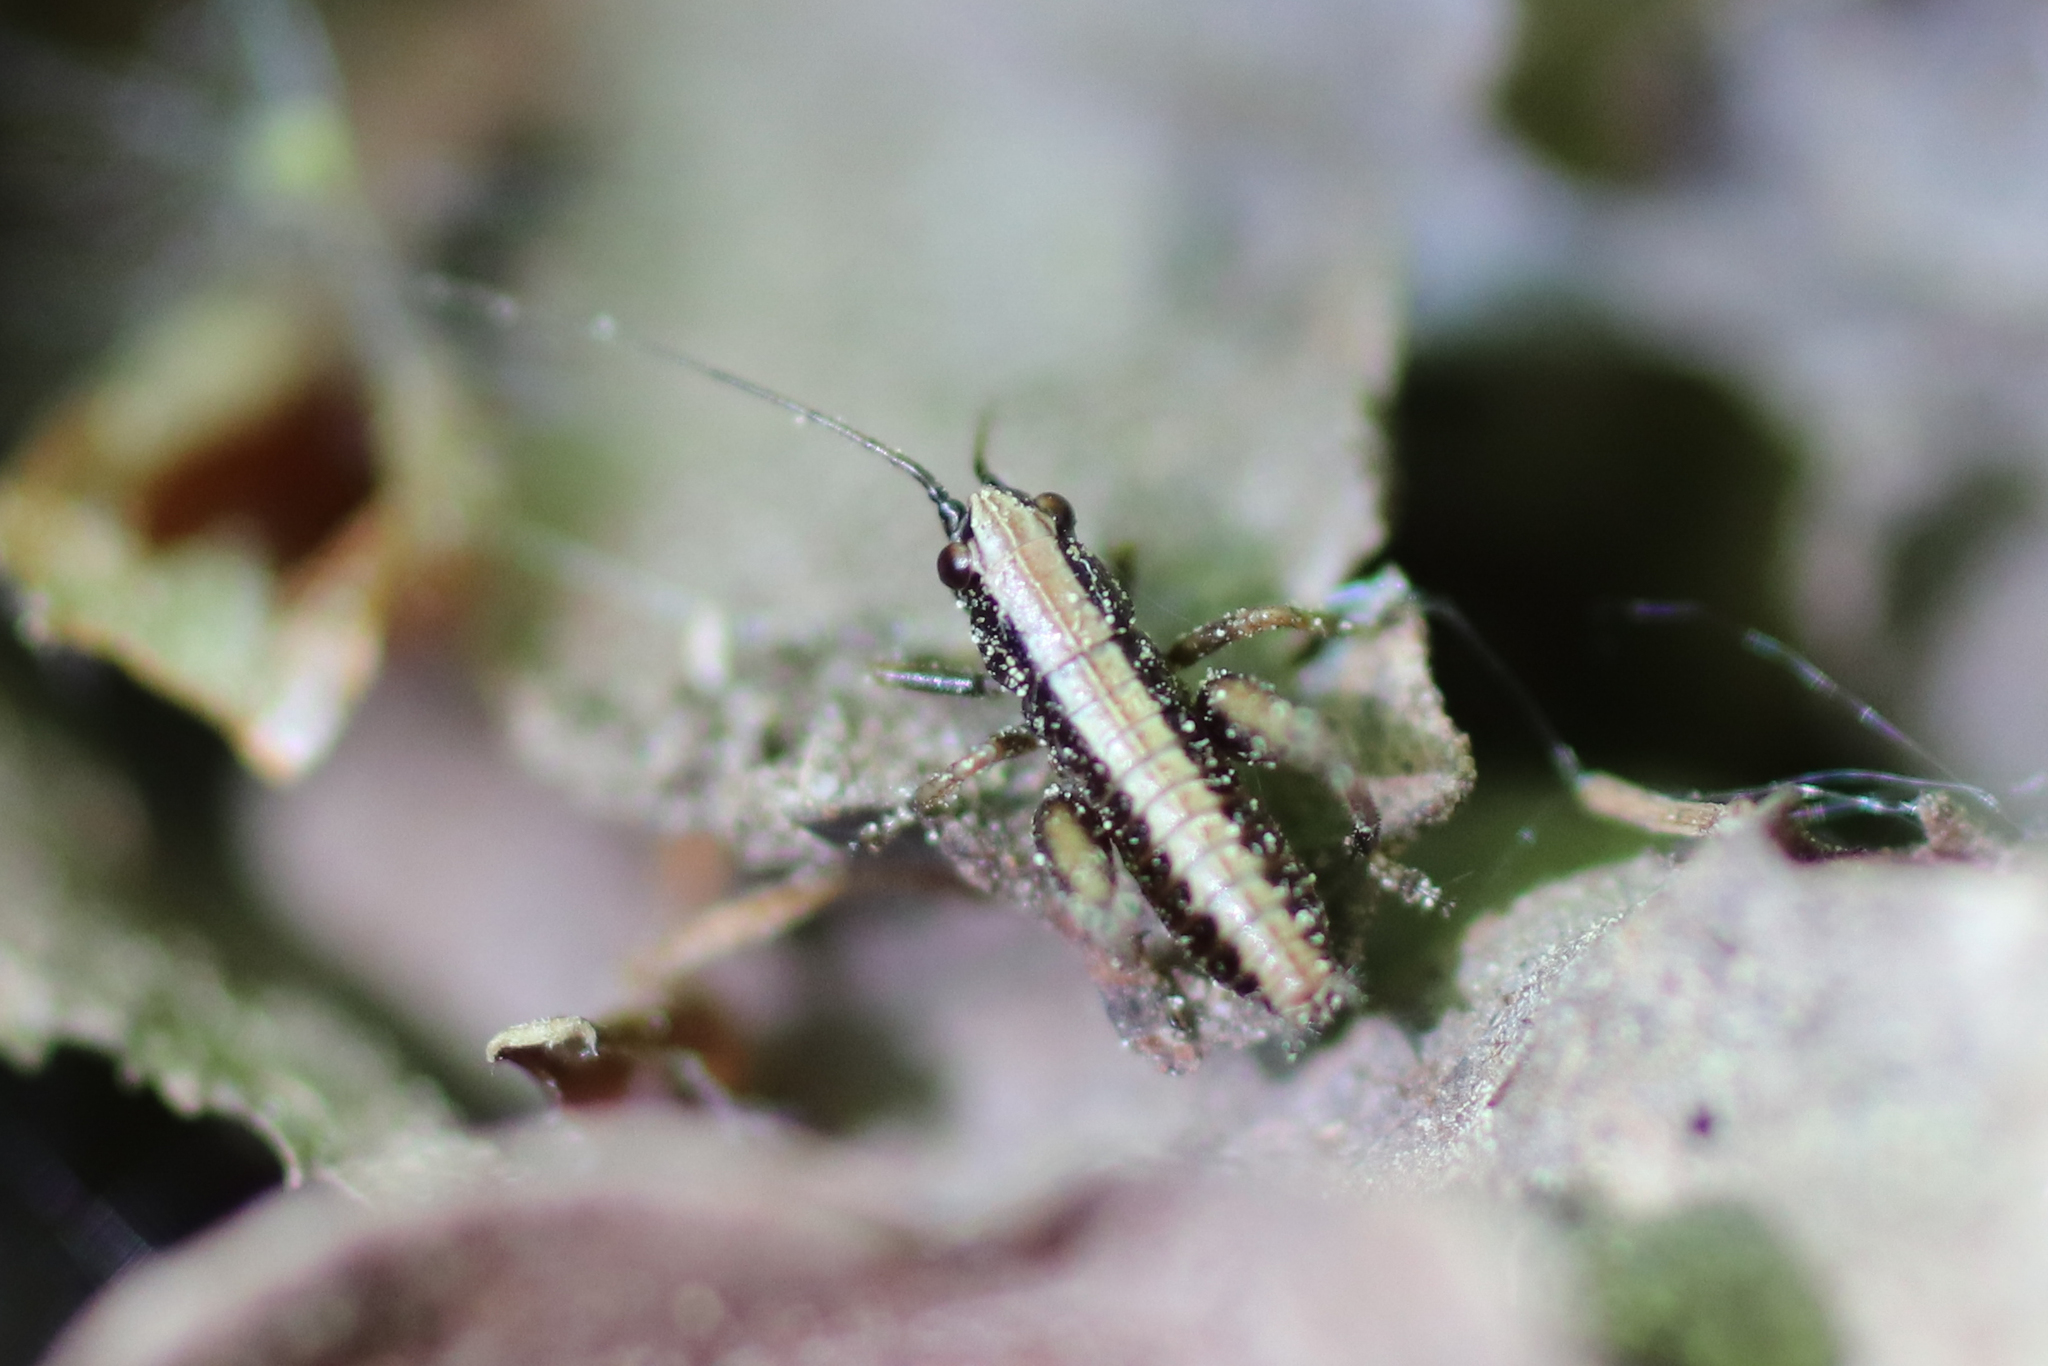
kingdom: Animalia
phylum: Arthropoda
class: Insecta
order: Orthoptera
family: Tettigoniidae
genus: Pholidoptera
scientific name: Pholidoptera griseoaptera
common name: Dark bush-cricket
